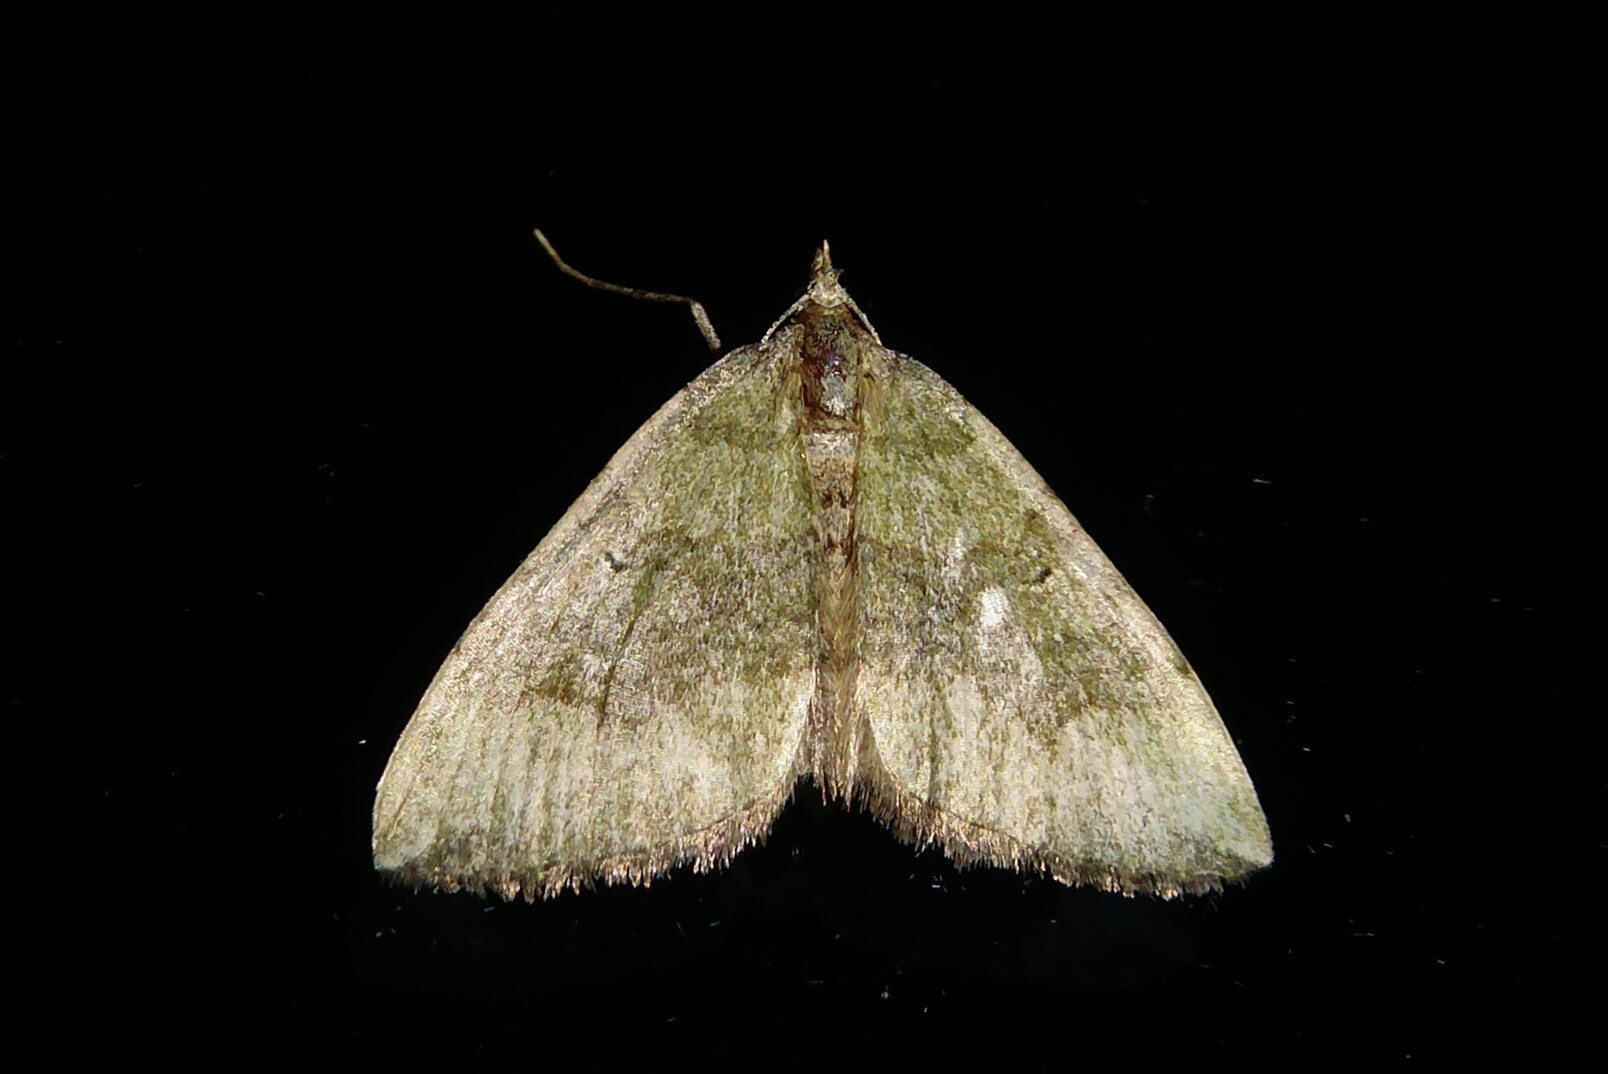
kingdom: Animalia
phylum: Arthropoda
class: Insecta
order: Lepidoptera
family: Geometridae
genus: Epyaxa
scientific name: Epyaxa rosearia
